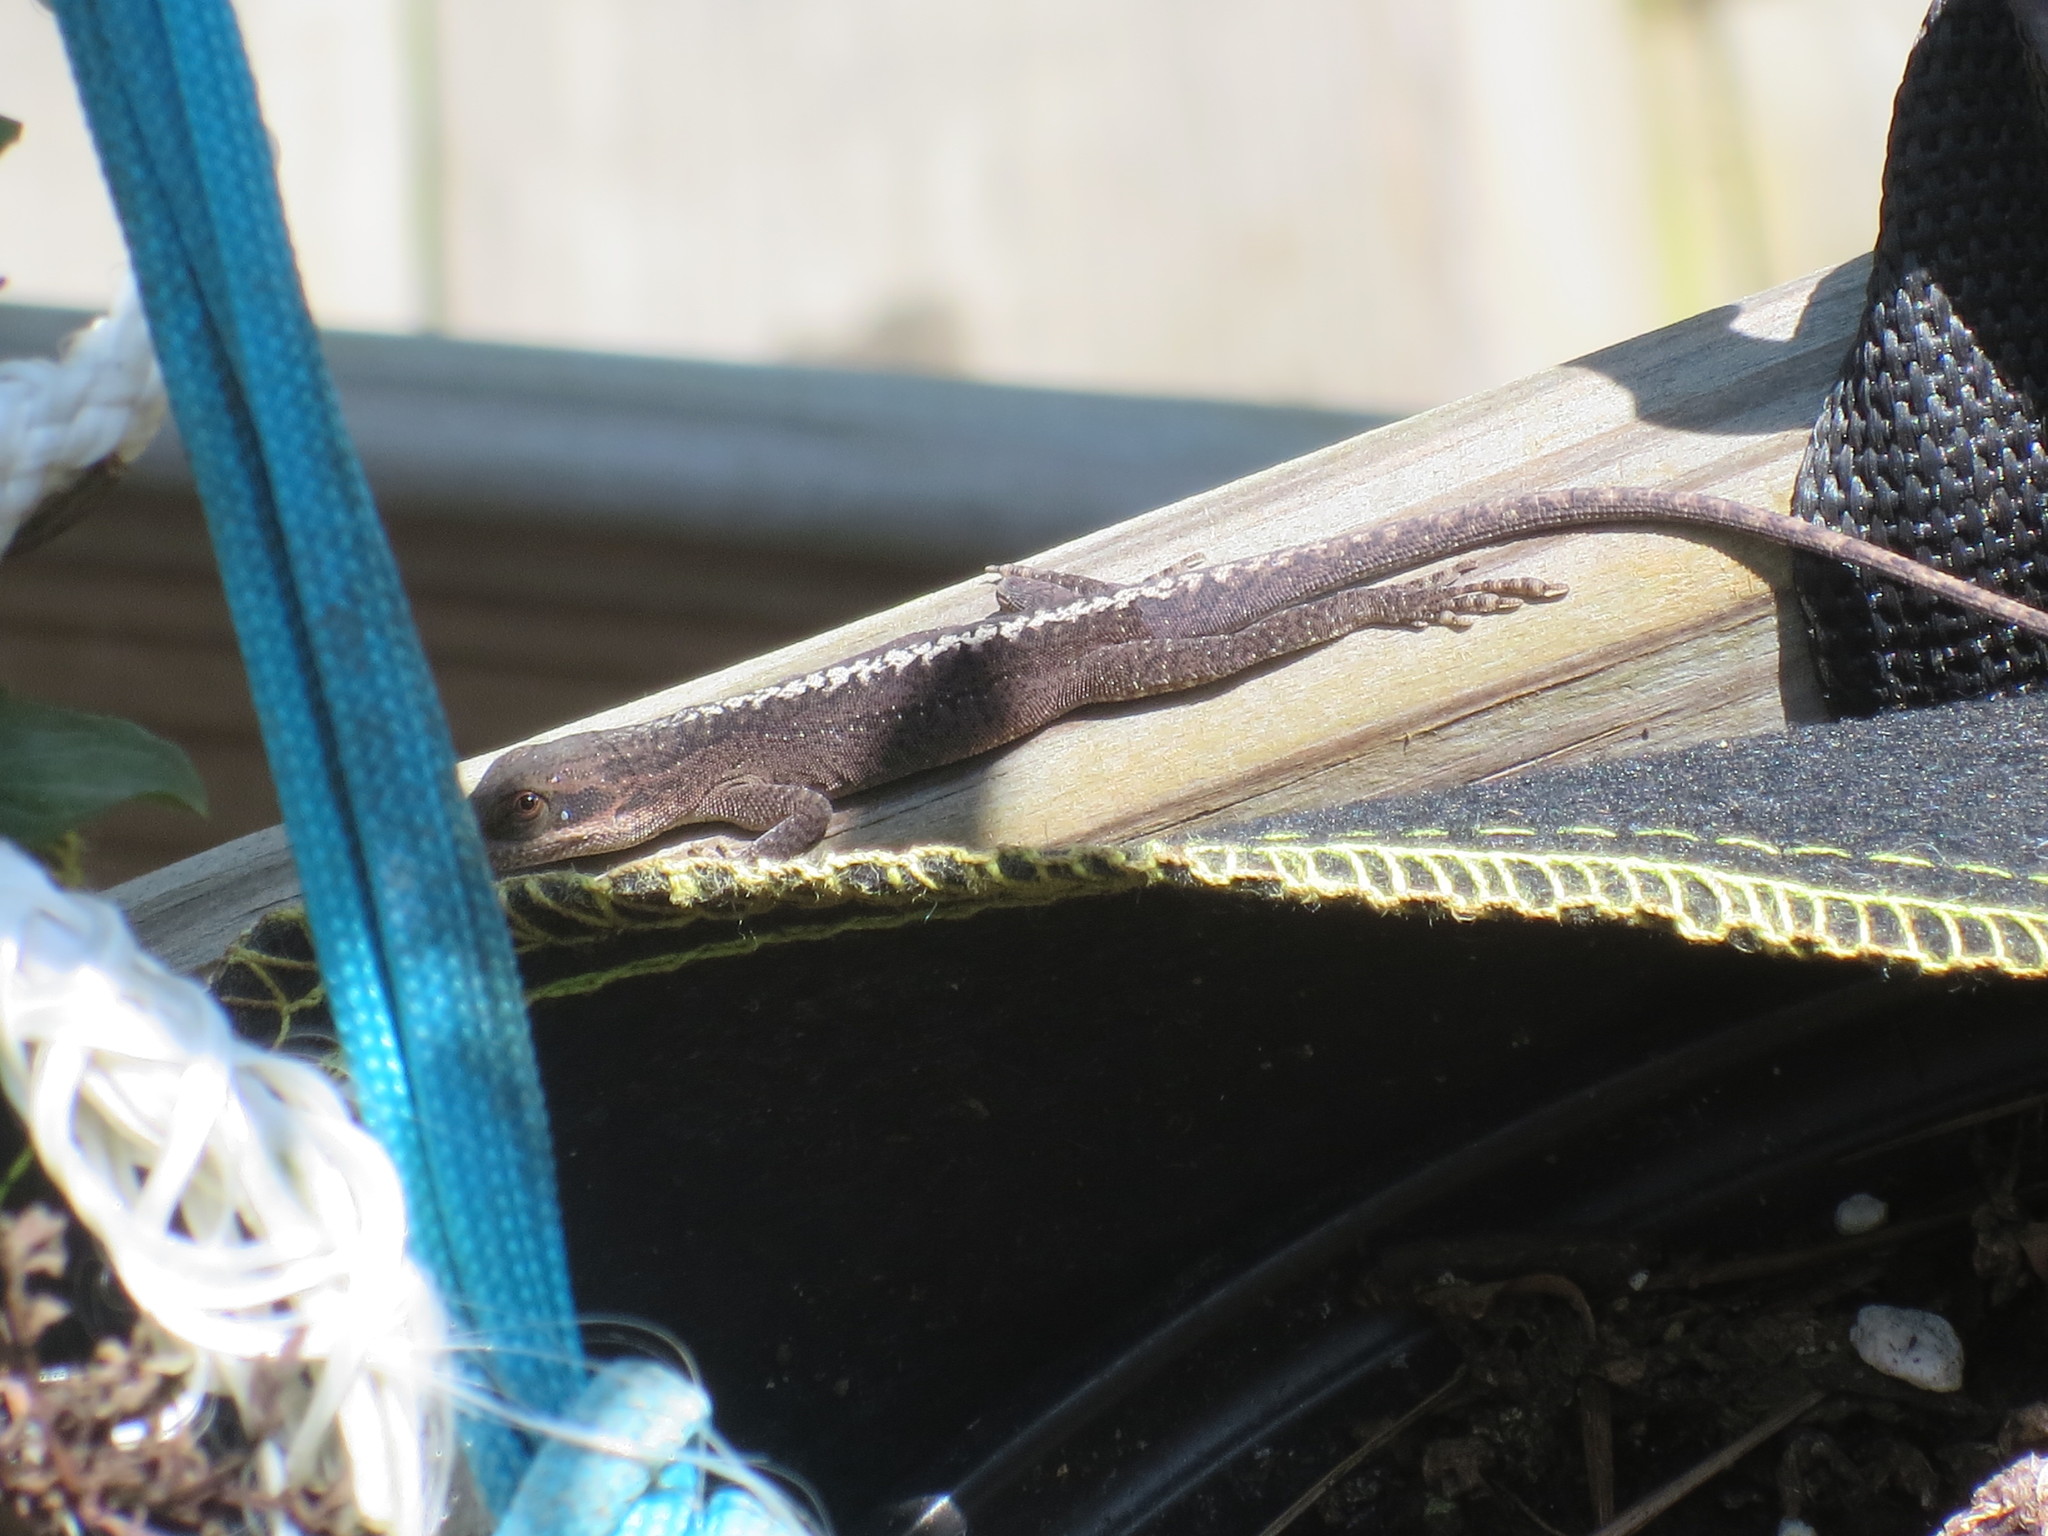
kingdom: Animalia
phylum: Chordata
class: Squamata
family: Dactyloidae
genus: Anolis
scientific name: Anolis carolinensis
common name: Green anole
